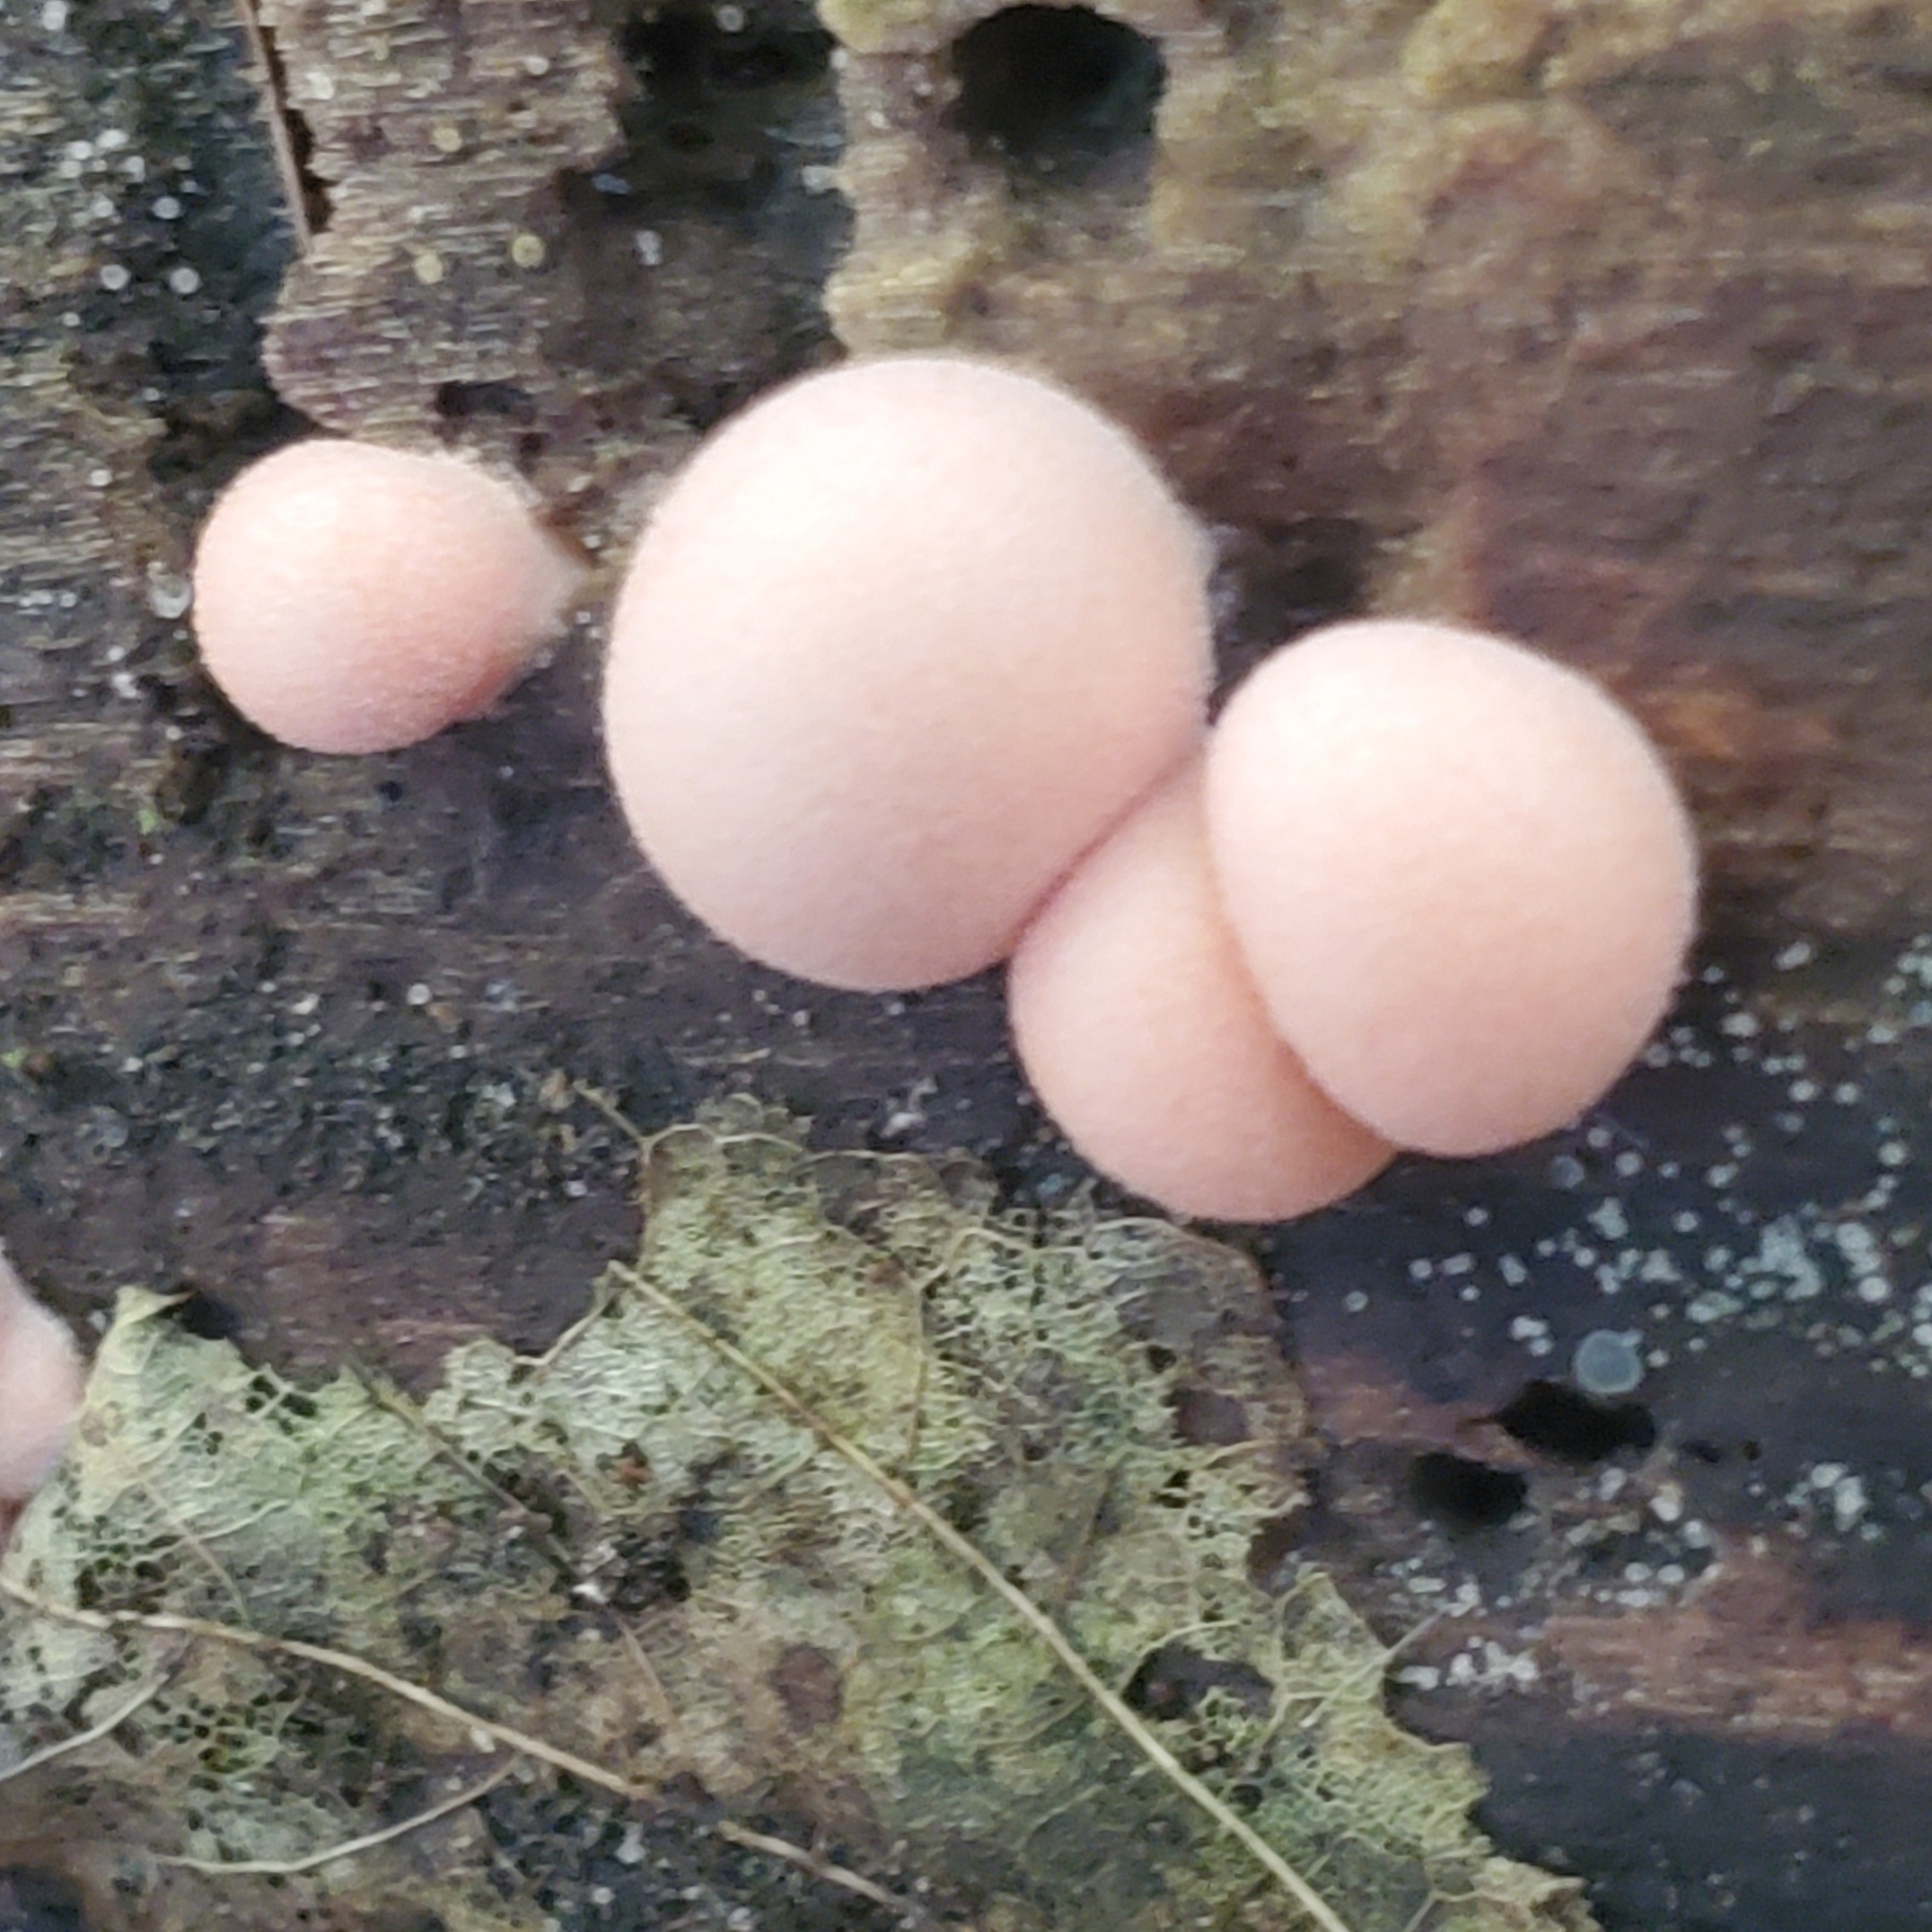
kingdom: Protozoa
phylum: Mycetozoa
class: Myxomycetes
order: Cribrariales
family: Tubiferaceae
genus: Lycogala
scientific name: Lycogala epidendrum
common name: Wolf's milk
